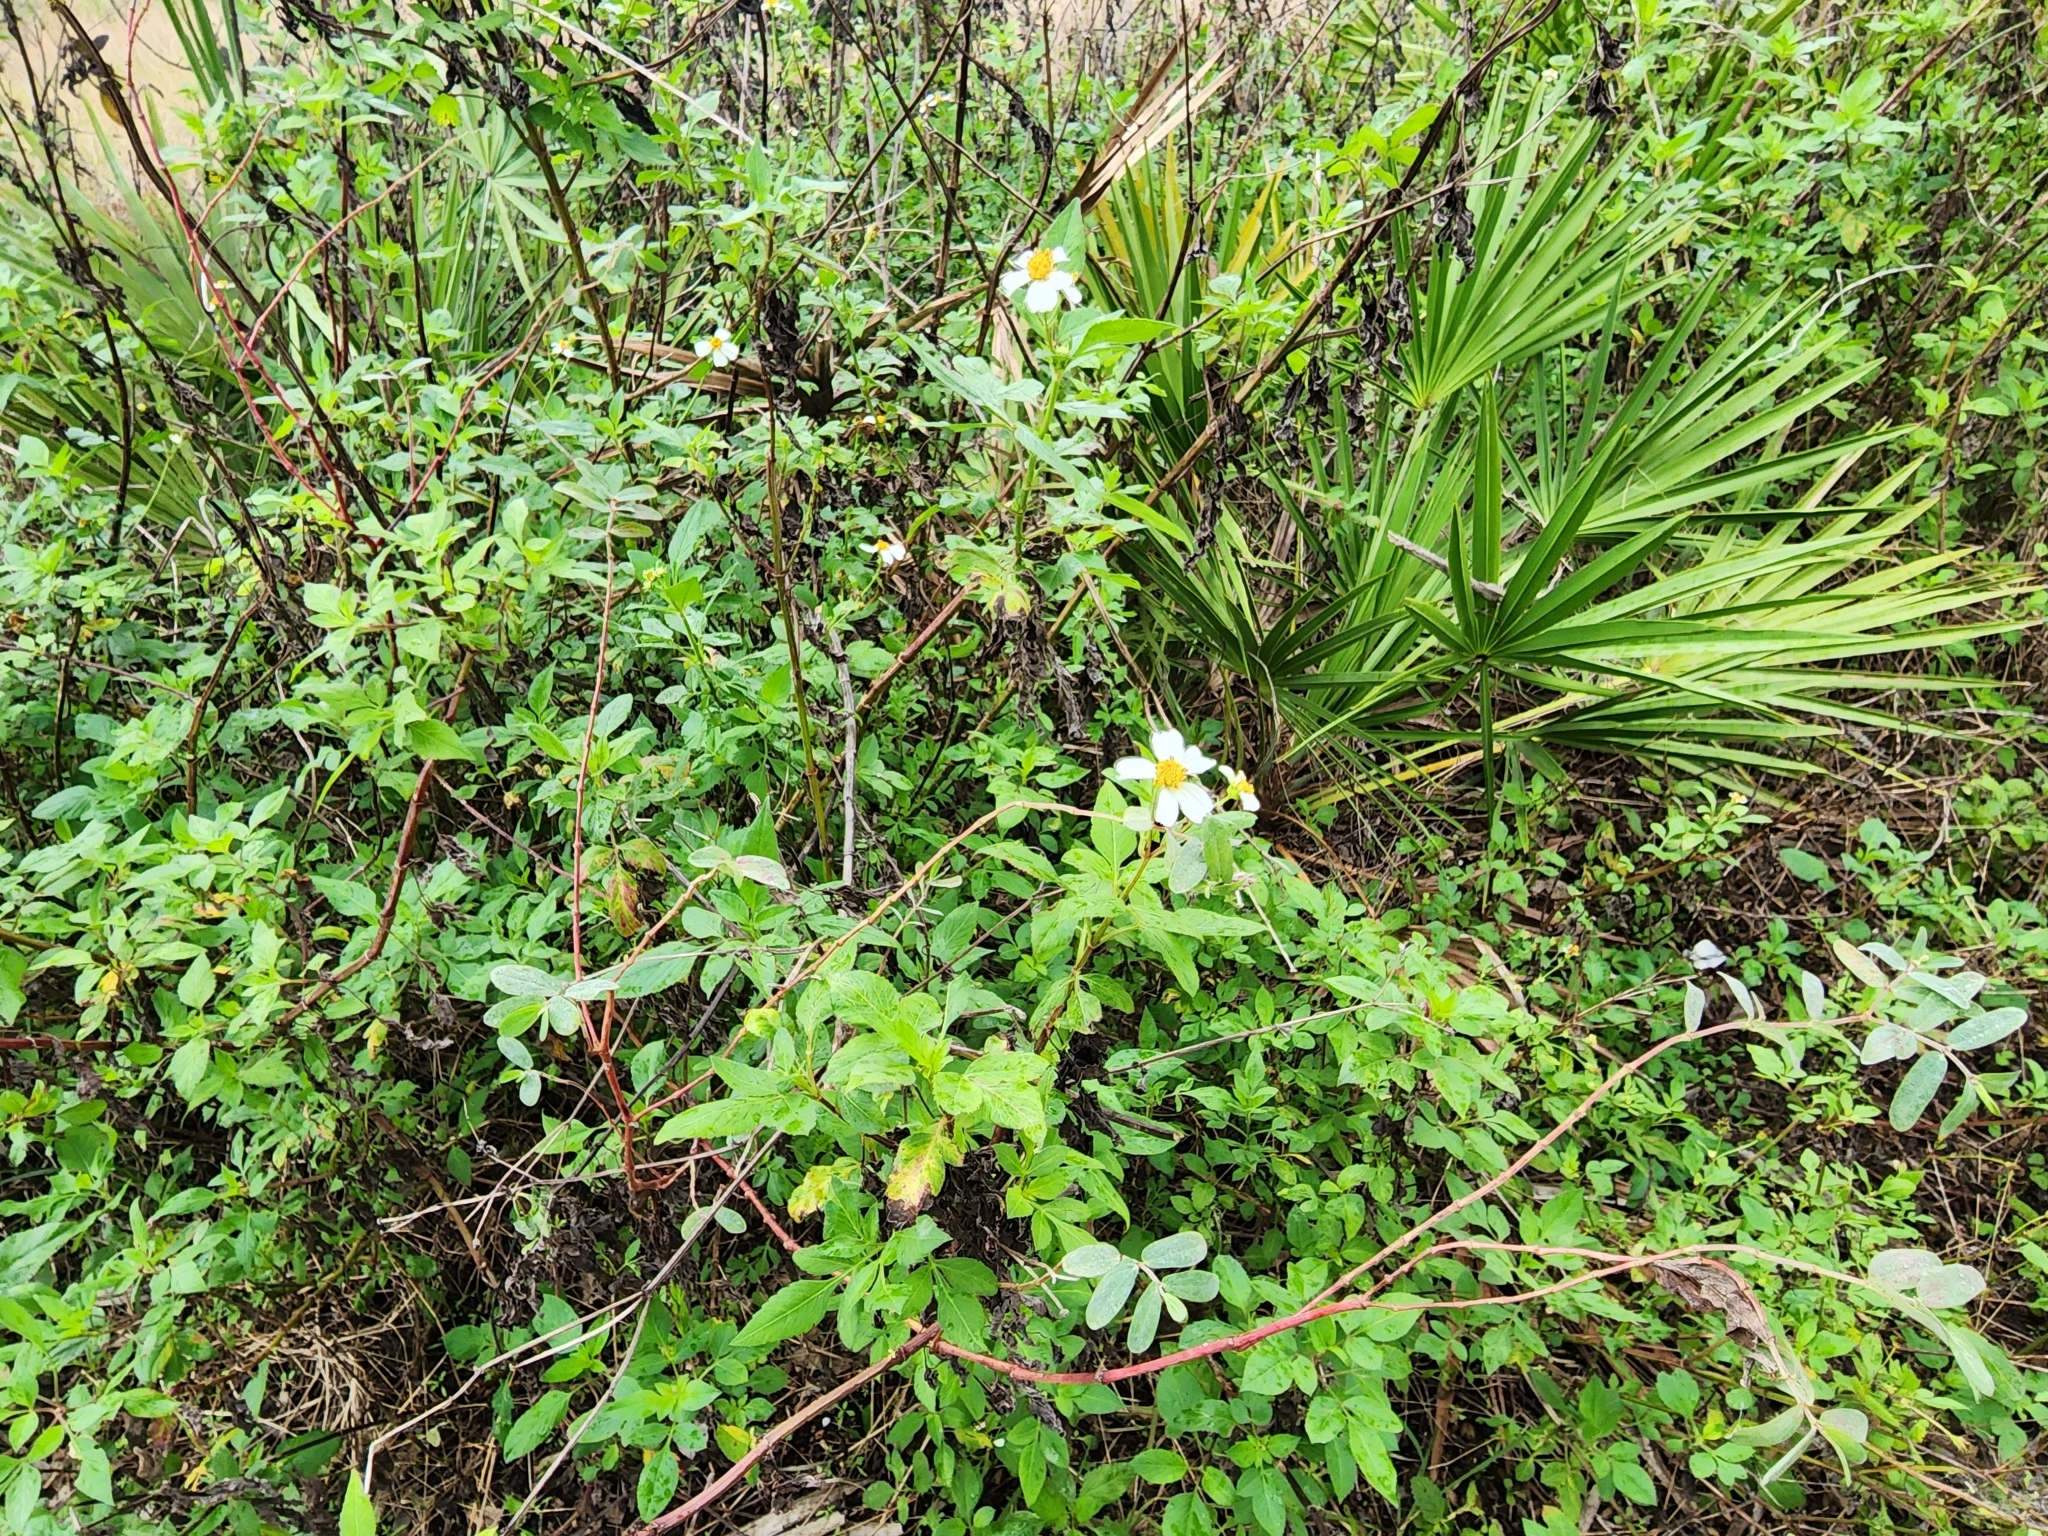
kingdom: Plantae
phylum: Tracheophyta
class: Magnoliopsida
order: Asterales
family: Asteraceae
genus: Bidens
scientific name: Bidens alba
